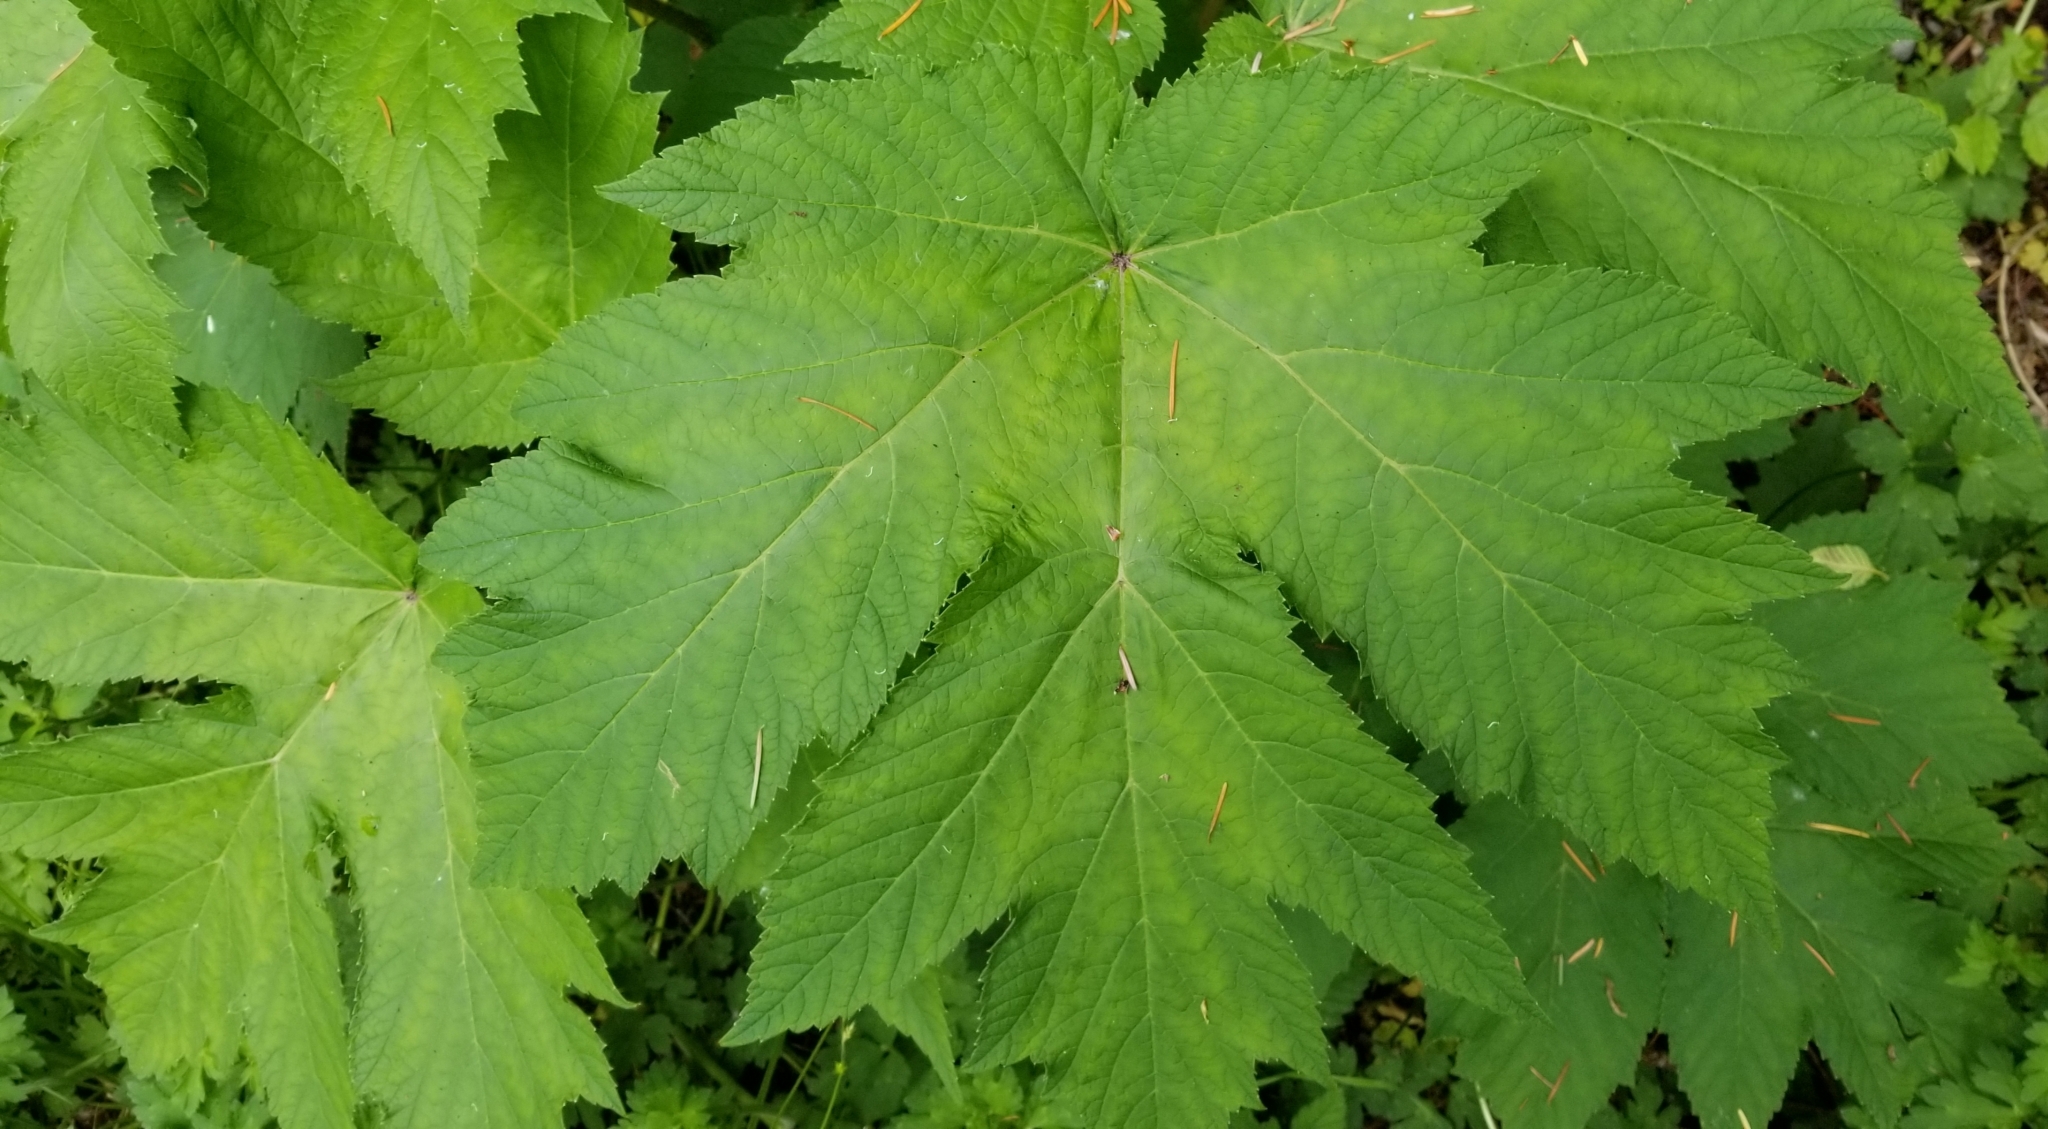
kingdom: Plantae
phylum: Tracheophyta
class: Magnoliopsida
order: Apiales
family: Apiaceae
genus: Heracleum
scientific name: Heracleum maximum
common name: American cow parsnip
